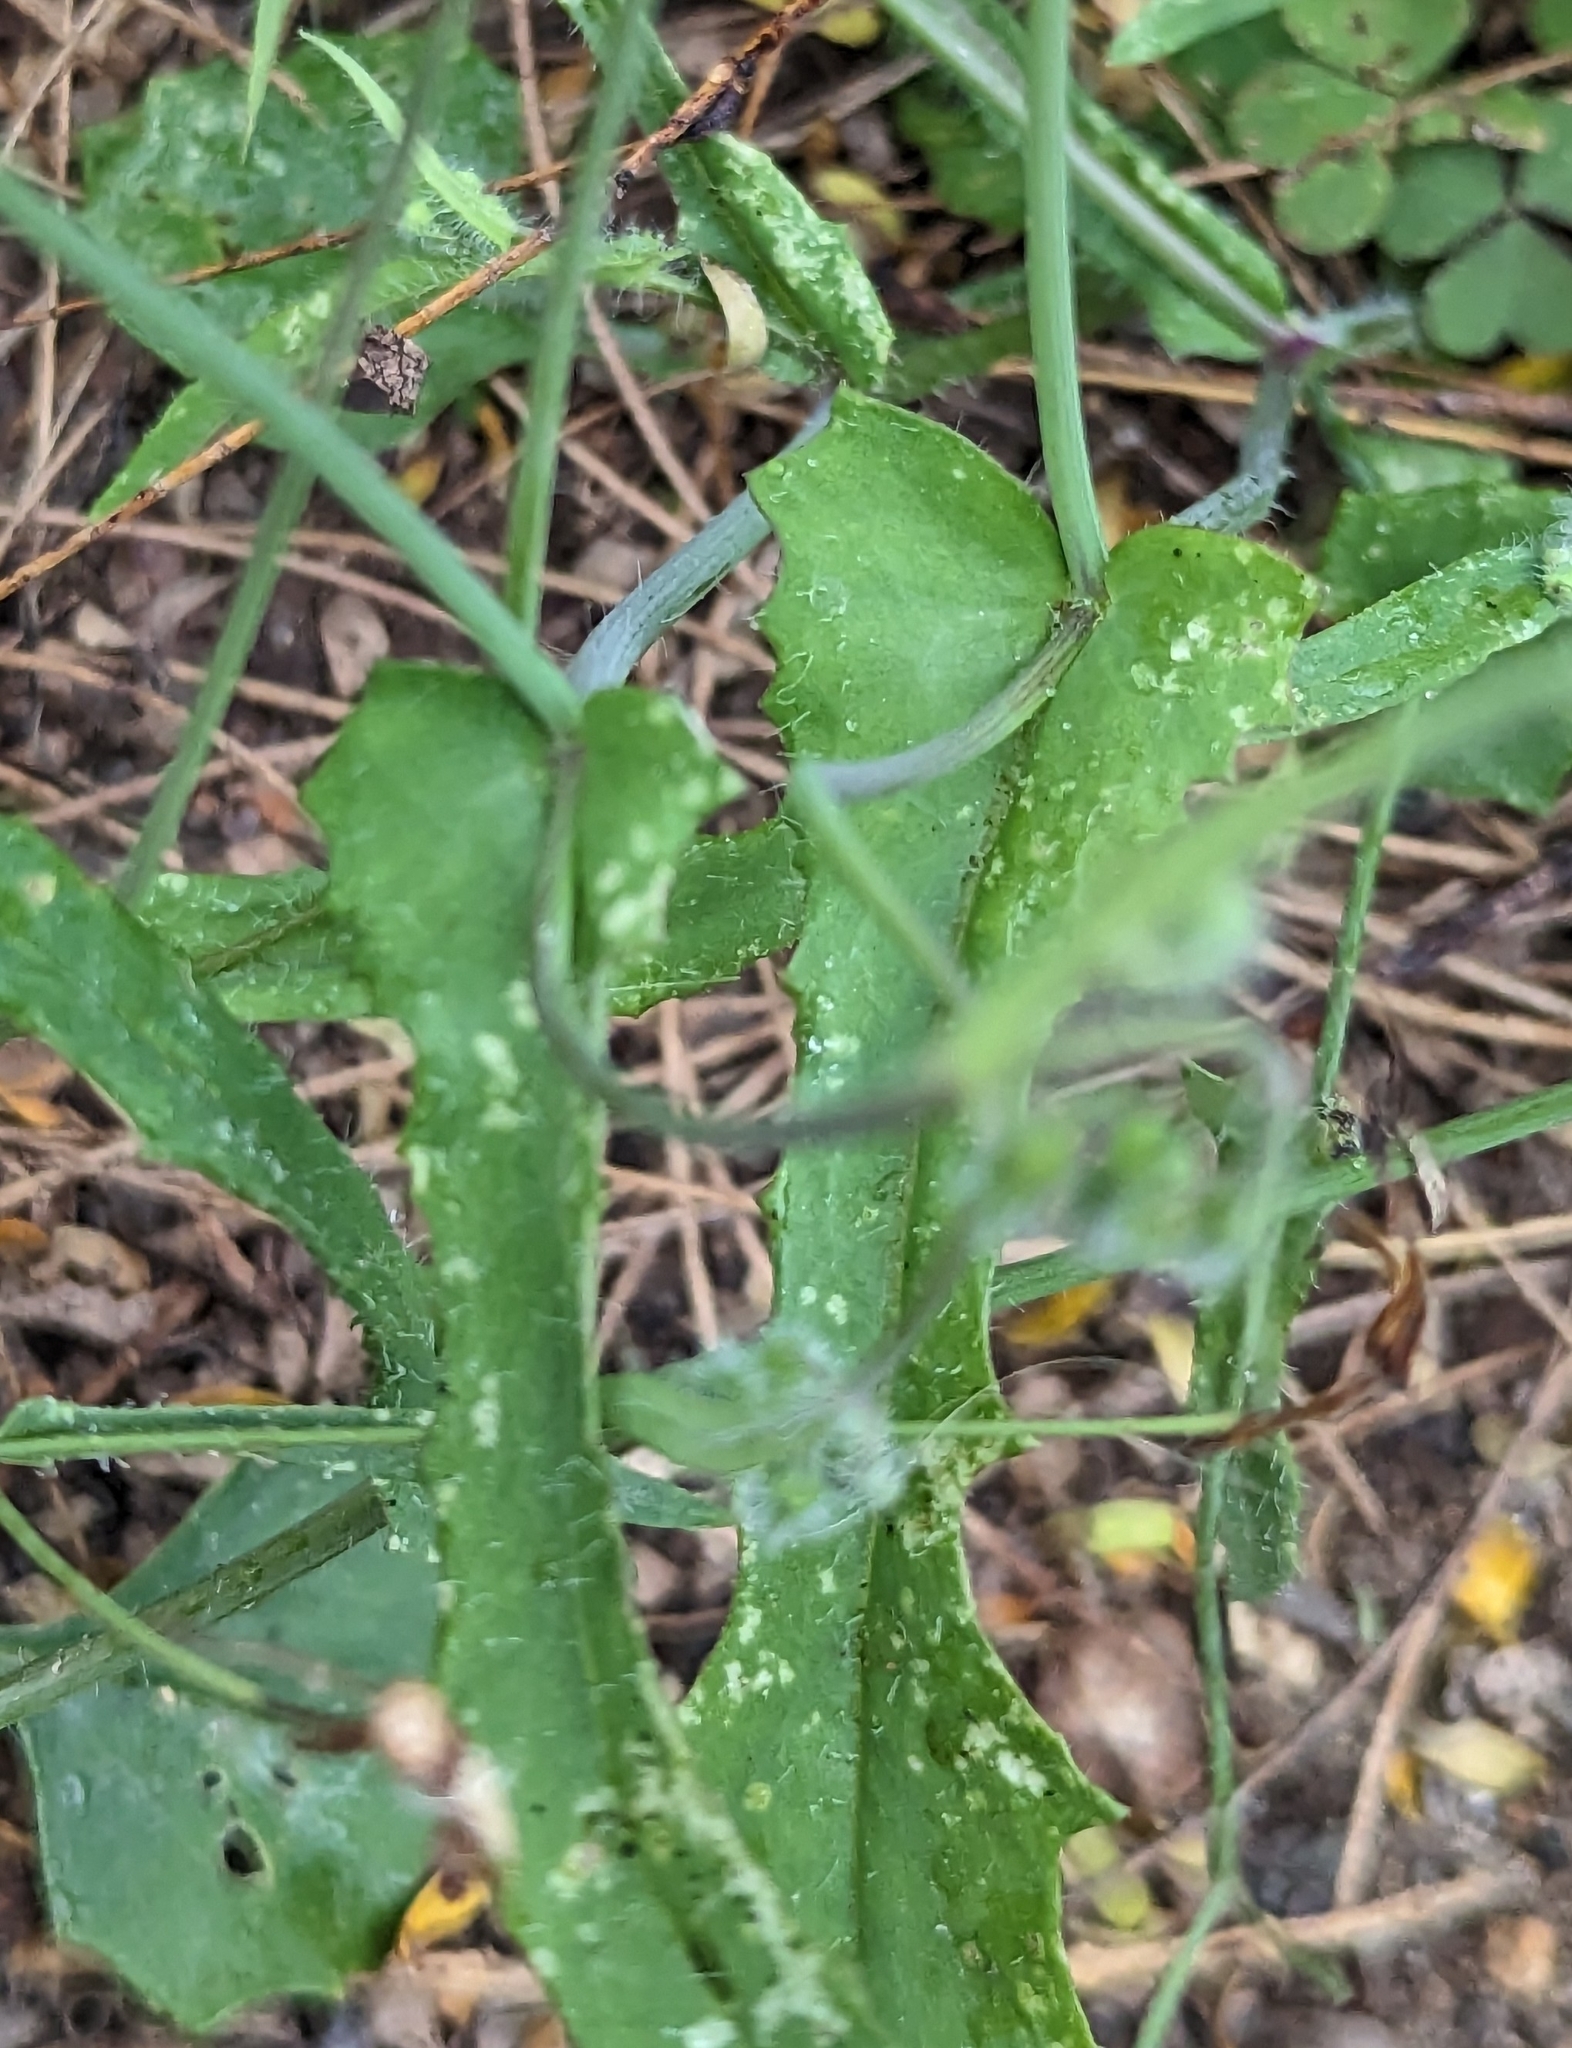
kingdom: Plantae
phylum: Tracheophyta
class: Magnoliopsida
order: Asterales
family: Asteraceae
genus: Emilia
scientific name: Emilia sonchifolia
